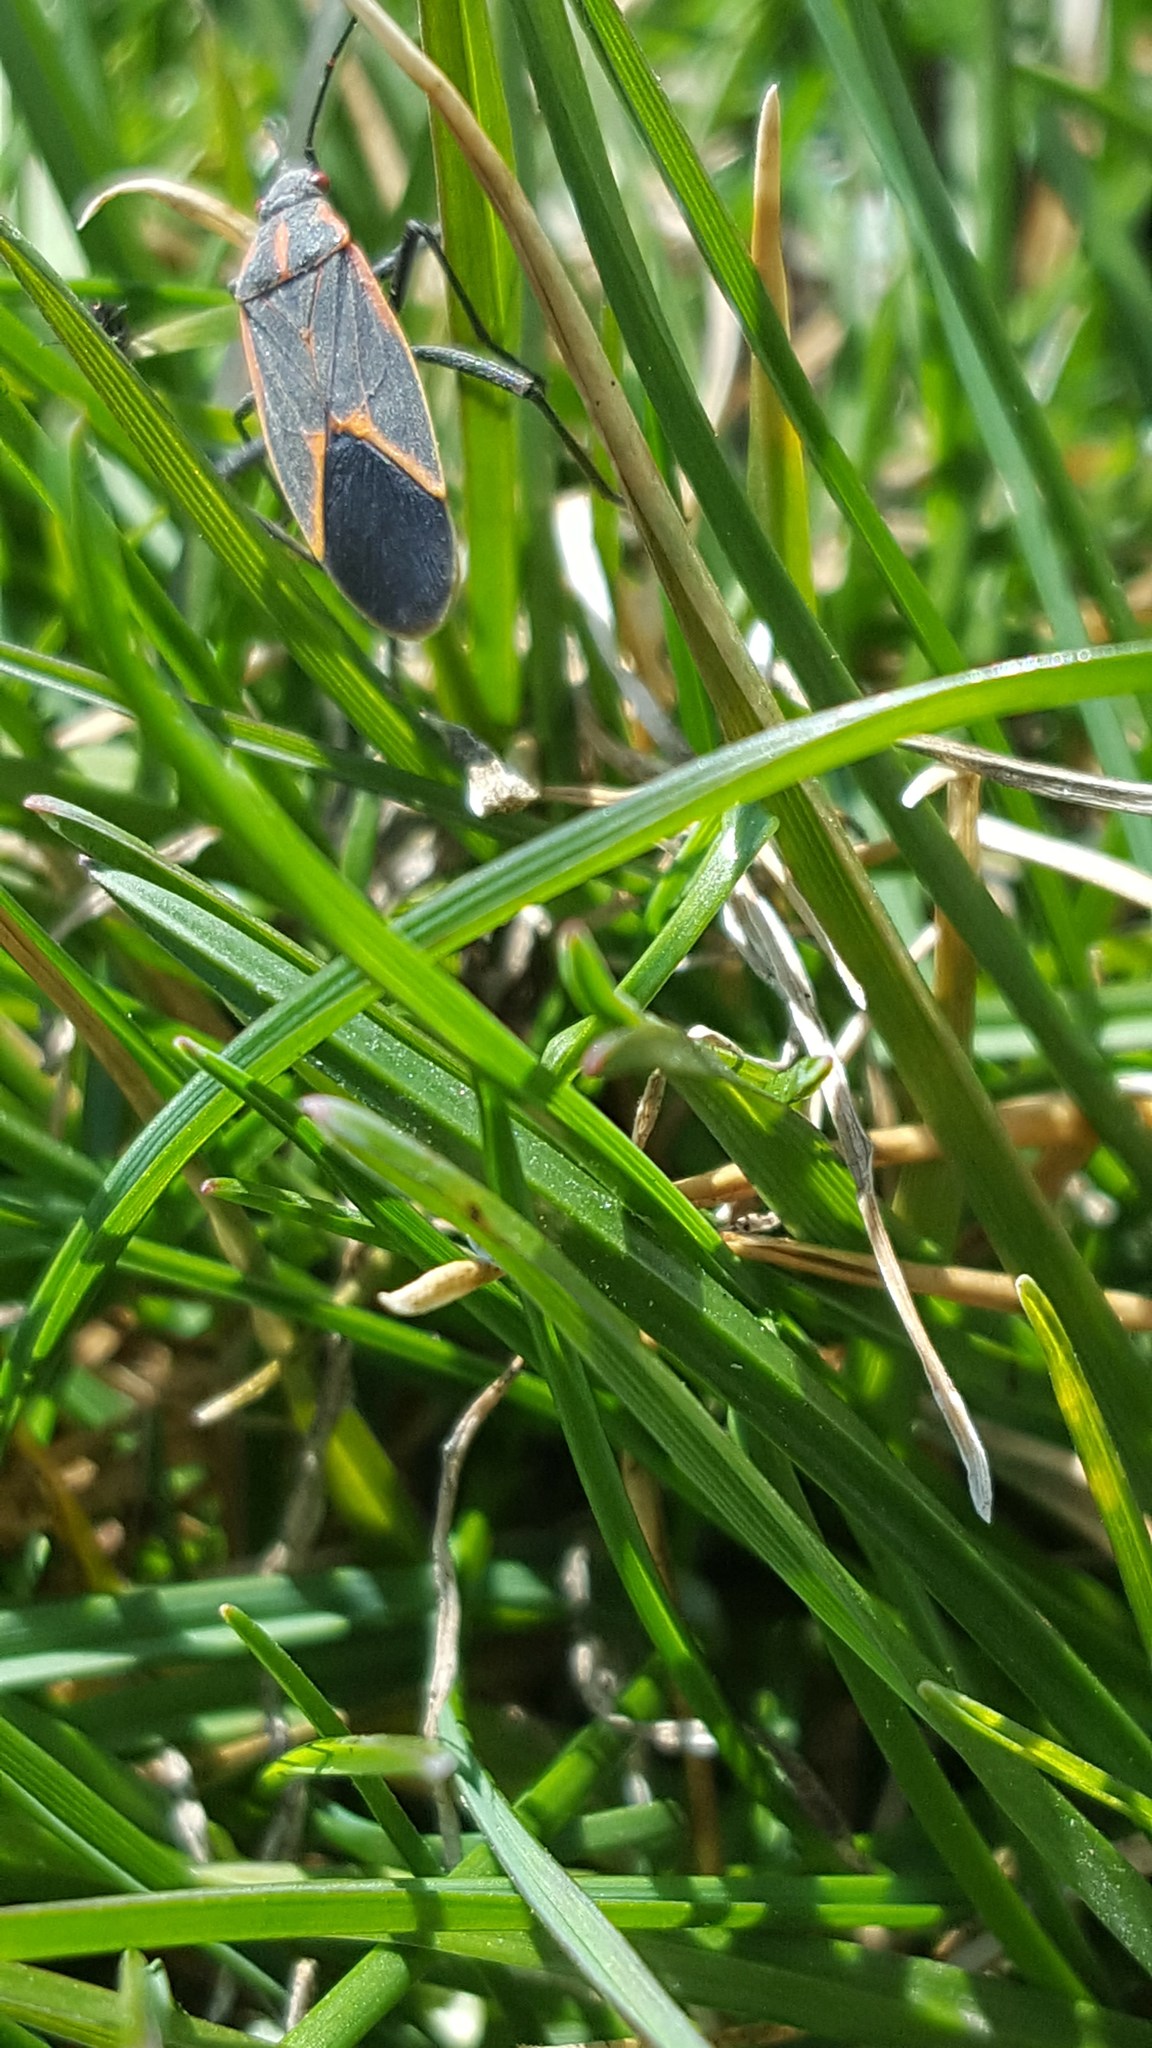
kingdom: Animalia
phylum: Arthropoda
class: Insecta
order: Hemiptera
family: Rhopalidae
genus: Boisea
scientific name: Boisea trivittata
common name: Boxelder bug
